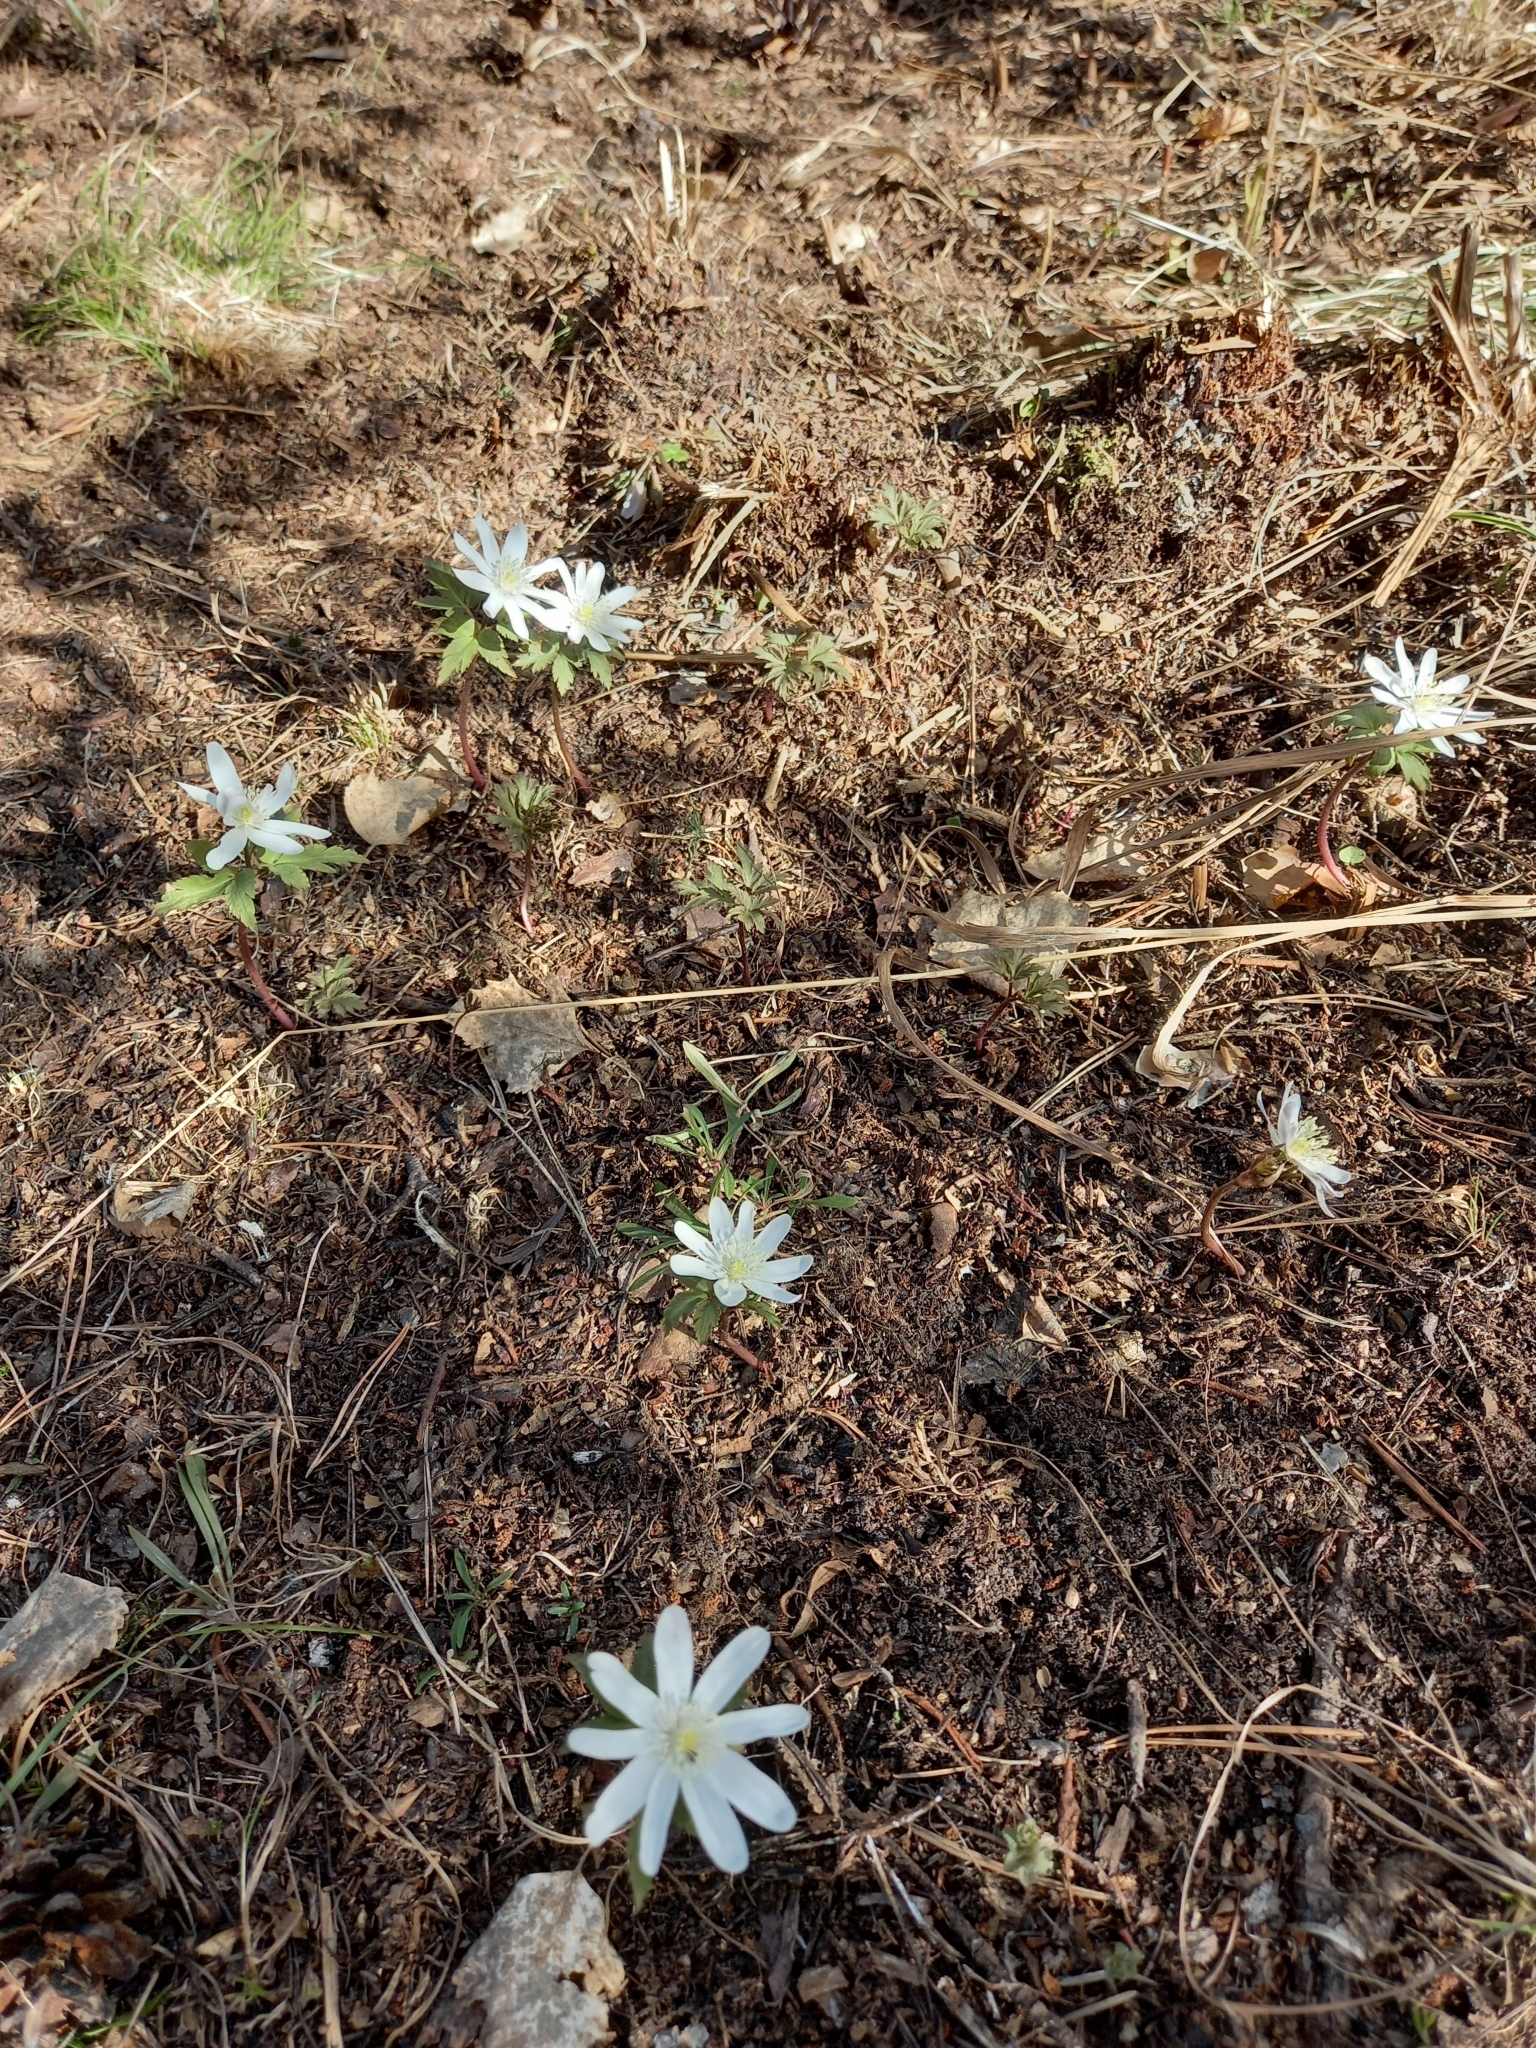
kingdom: Plantae
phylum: Tracheophyta
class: Magnoliopsida
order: Ranunculales
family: Ranunculaceae
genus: Anemone
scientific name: Anemone altaica
